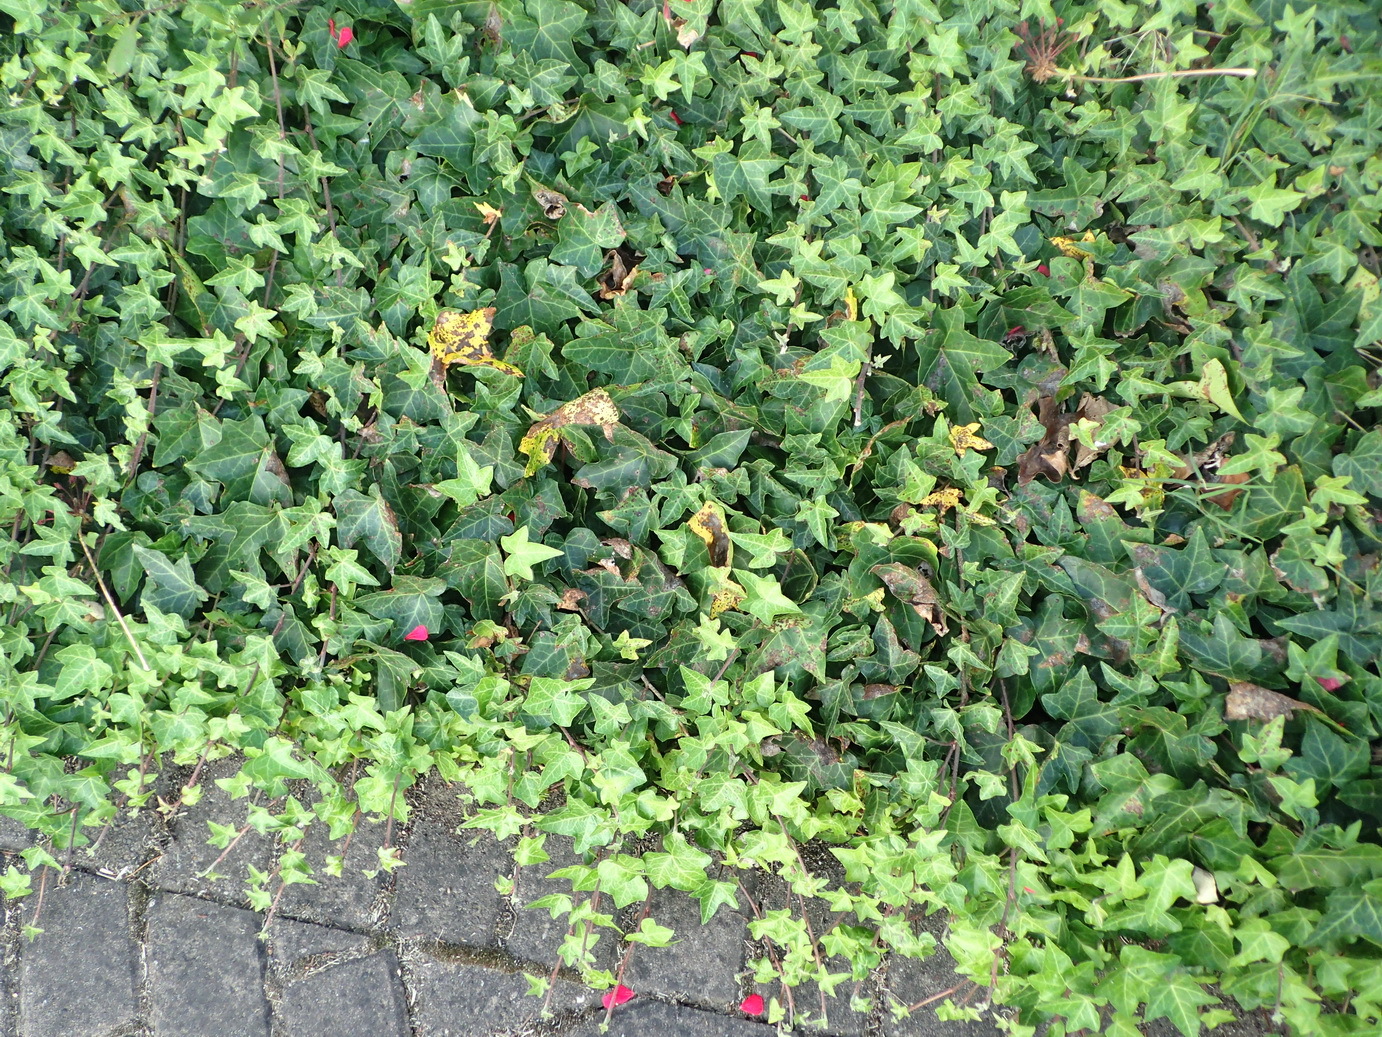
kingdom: Plantae
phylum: Tracheophyta
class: Magnoliopsida
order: Apiales
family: Araliaceae
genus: Hedera
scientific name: Hedera helix
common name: Ivy
